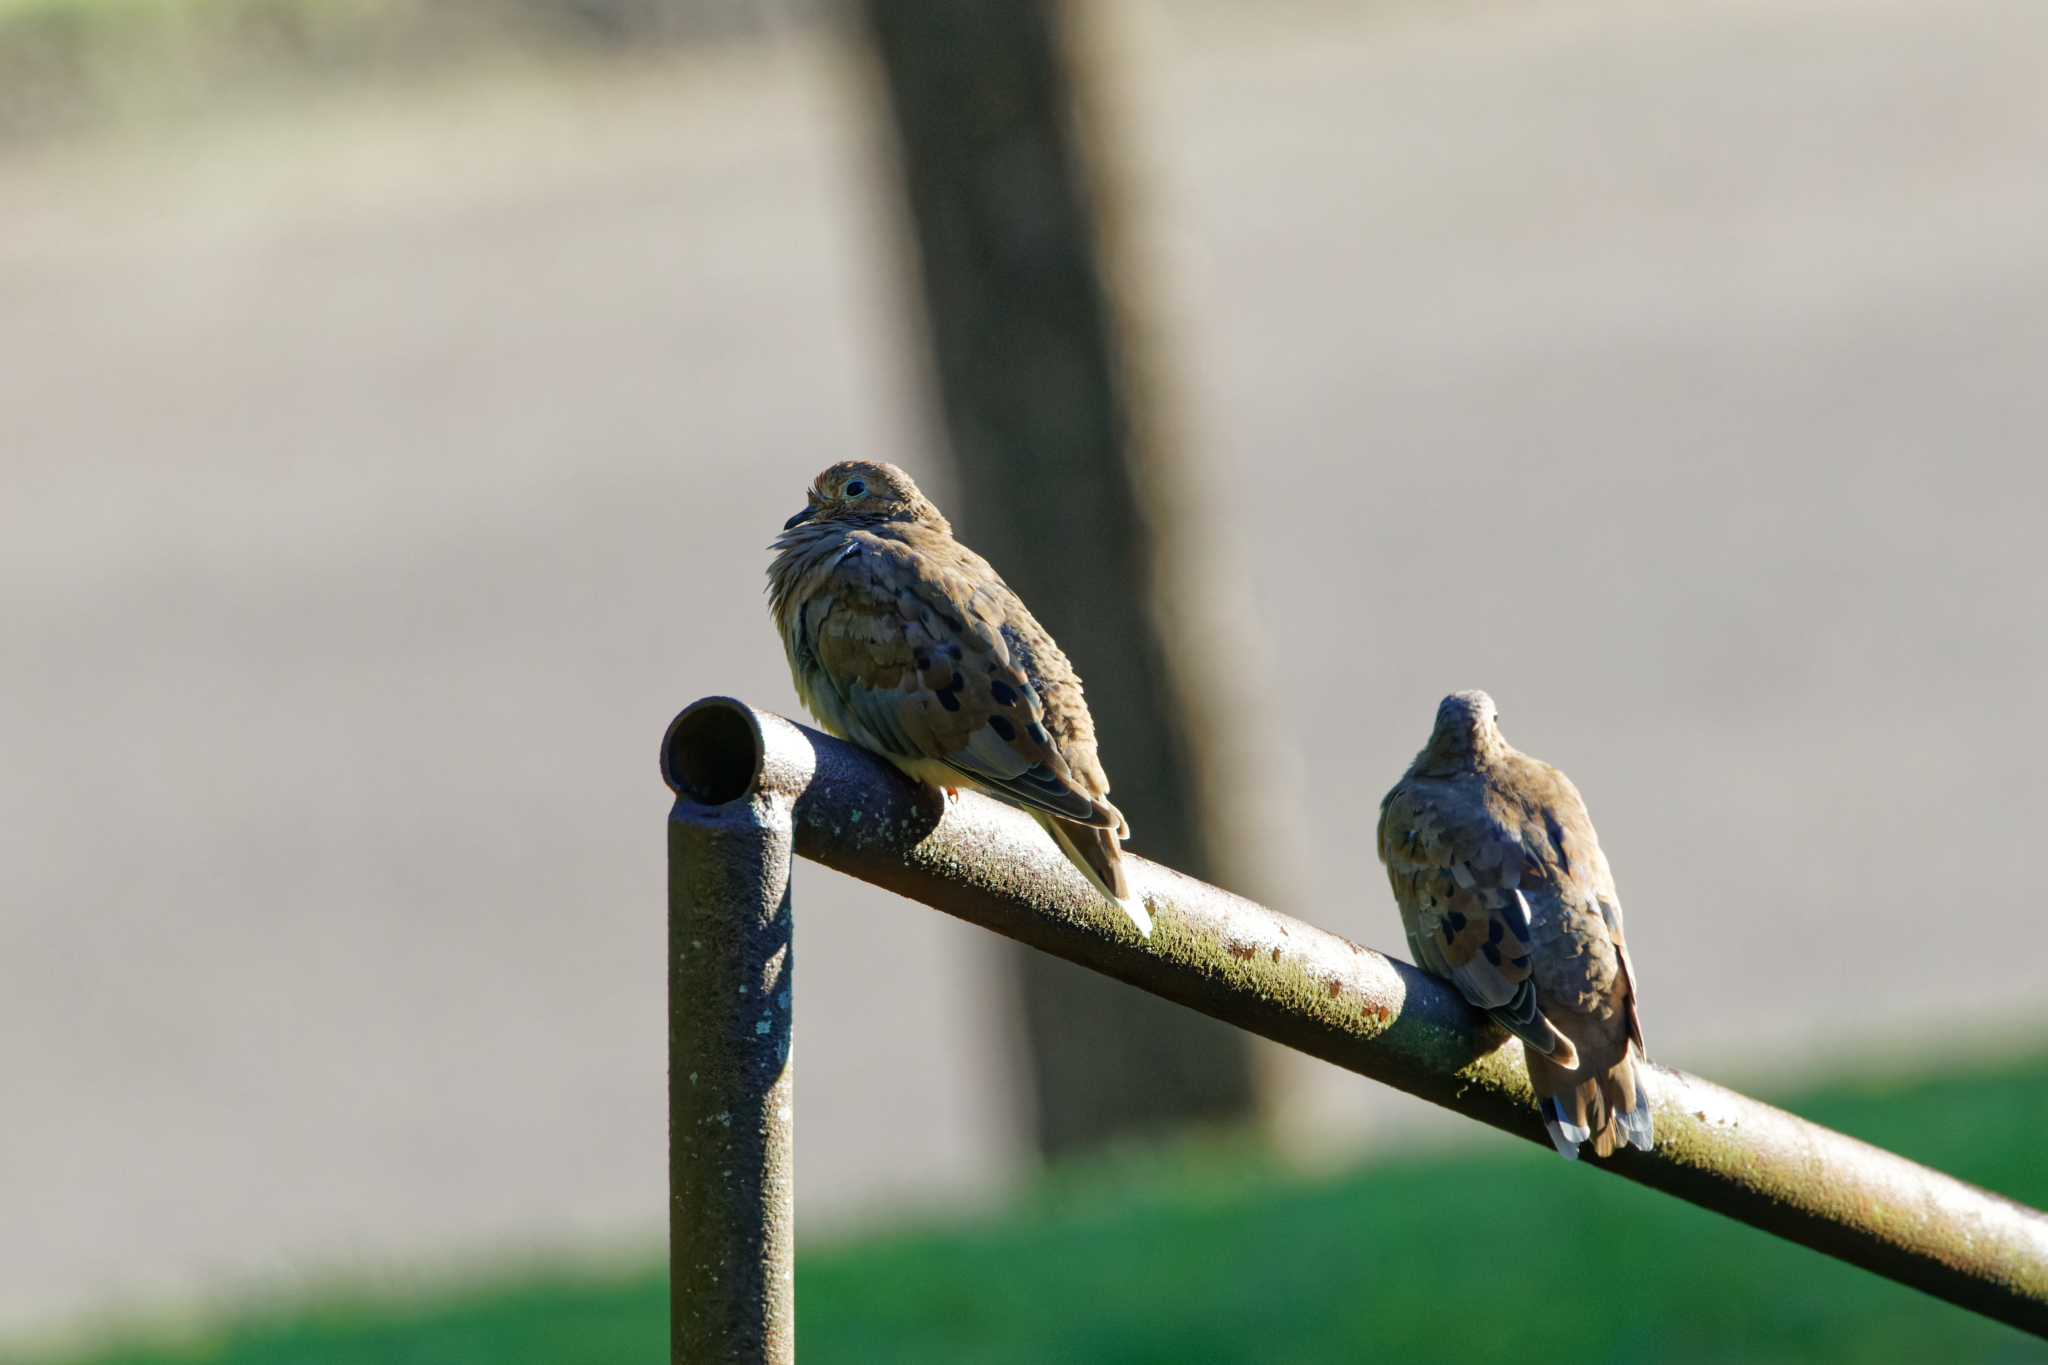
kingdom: Animalia
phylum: Chordata
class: Aves
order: Columbiformes
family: Columbidae
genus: Zenaida
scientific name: Zenaida macroura
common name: Mourning dove
